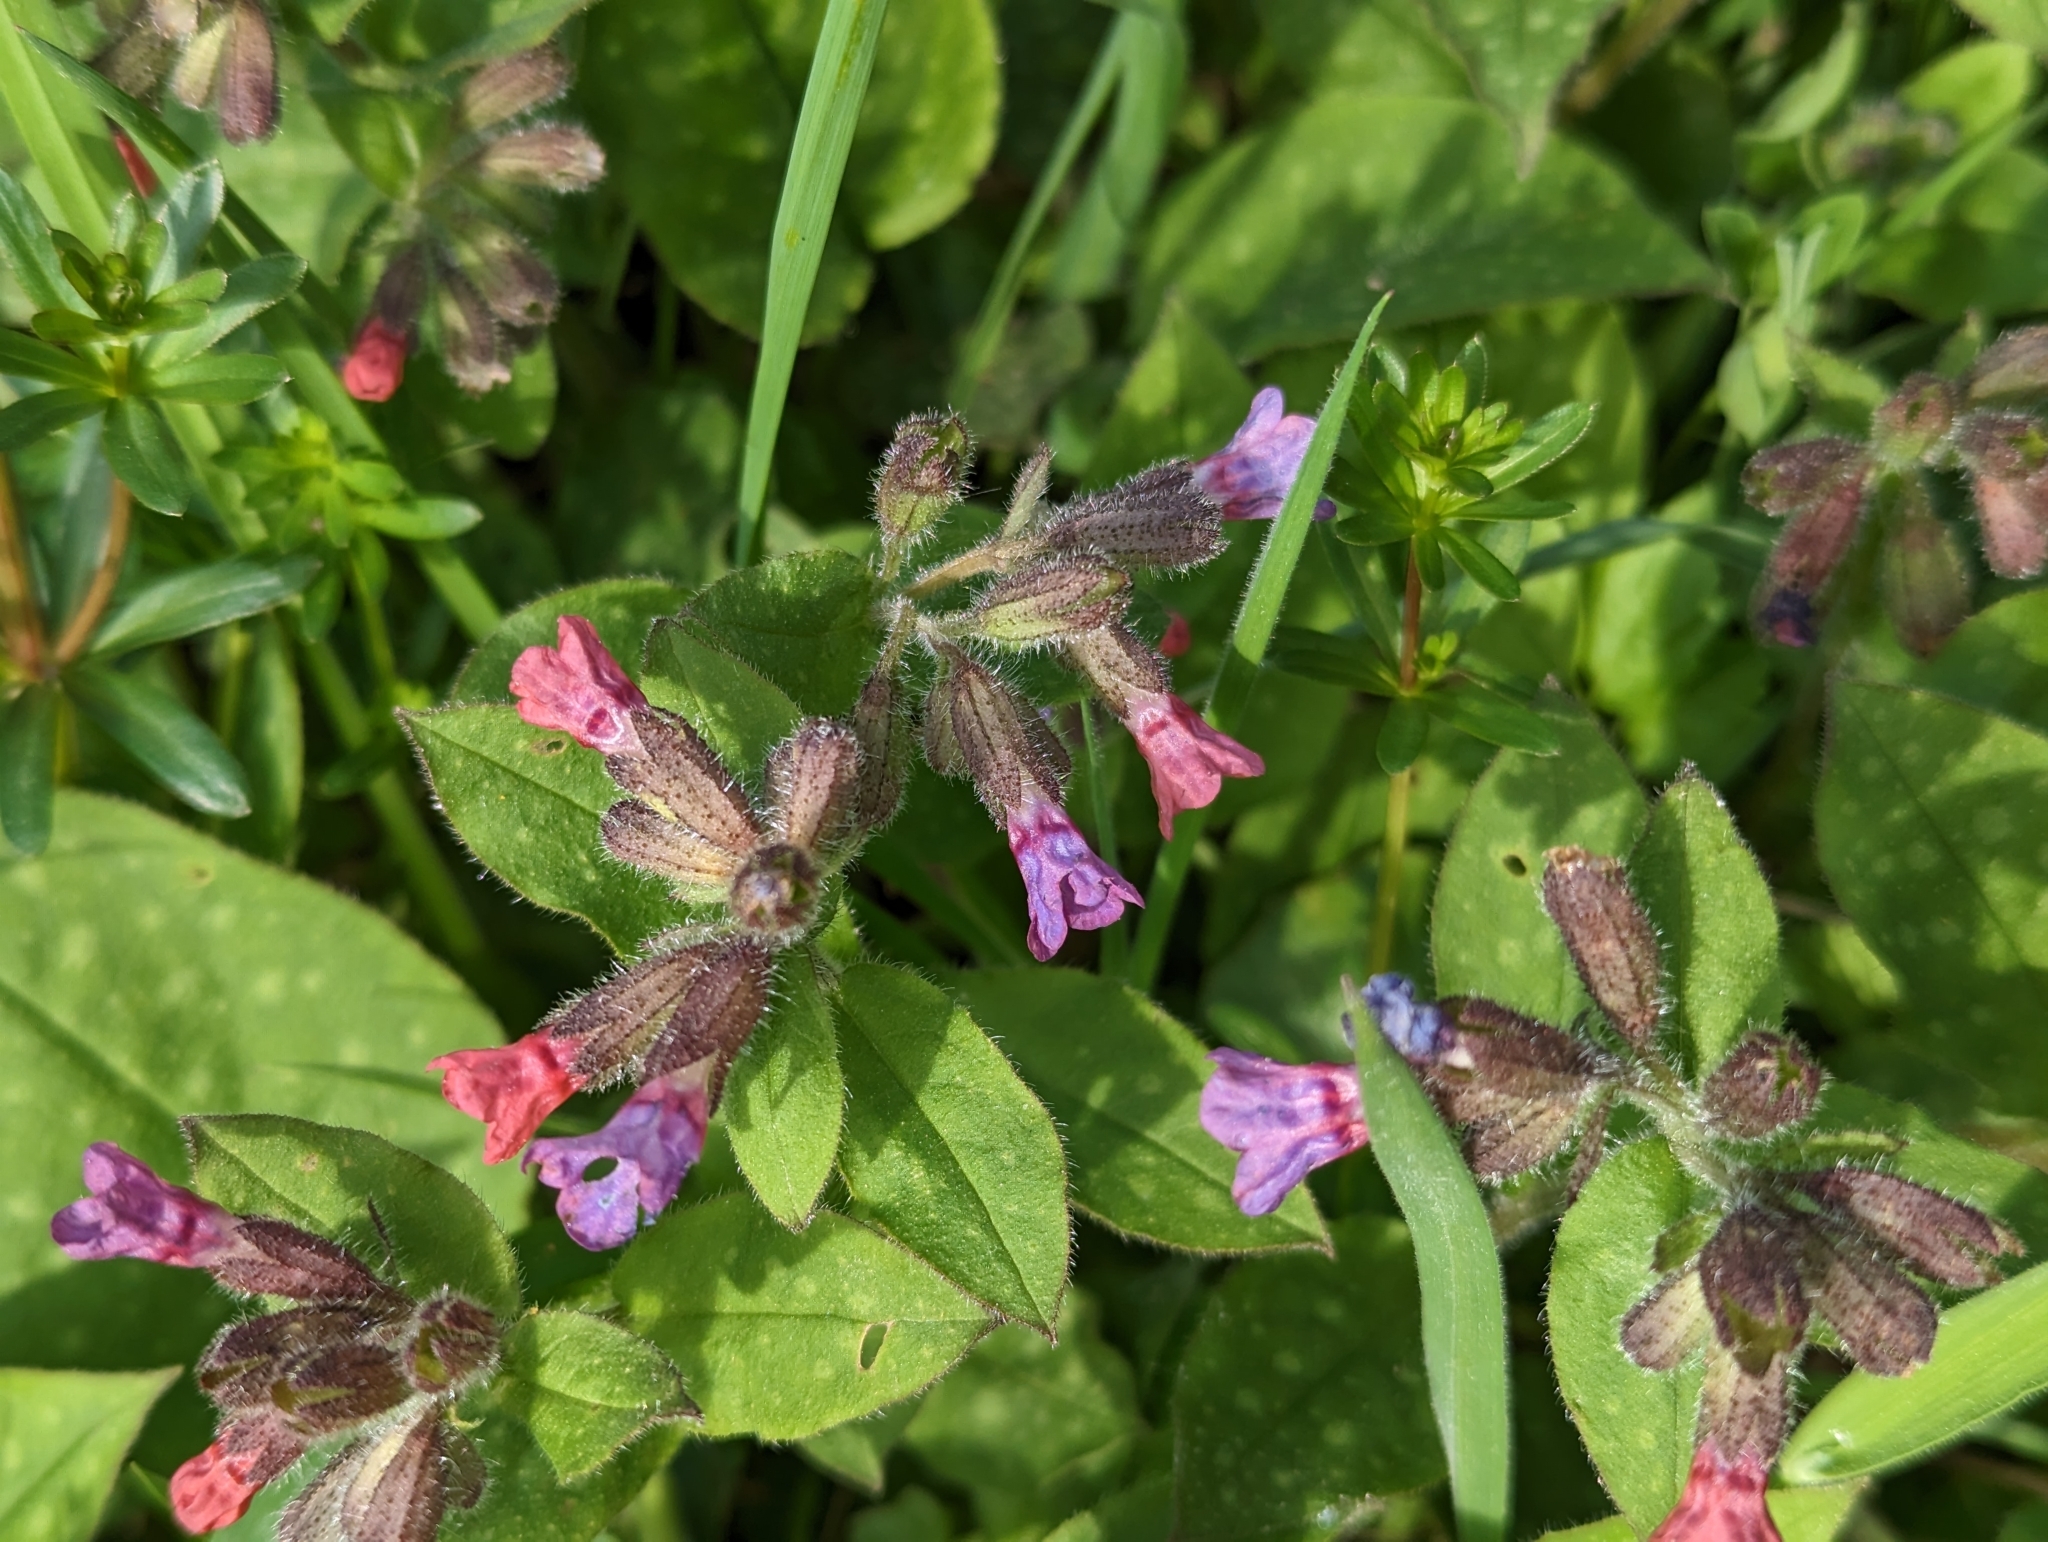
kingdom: Plantae
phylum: Tracheophyta
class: Magnoliopsida
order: Boraginales
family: Boraginaceae
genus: Pulmonaria
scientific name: Pulmonaria officinalis
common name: Lungwort
